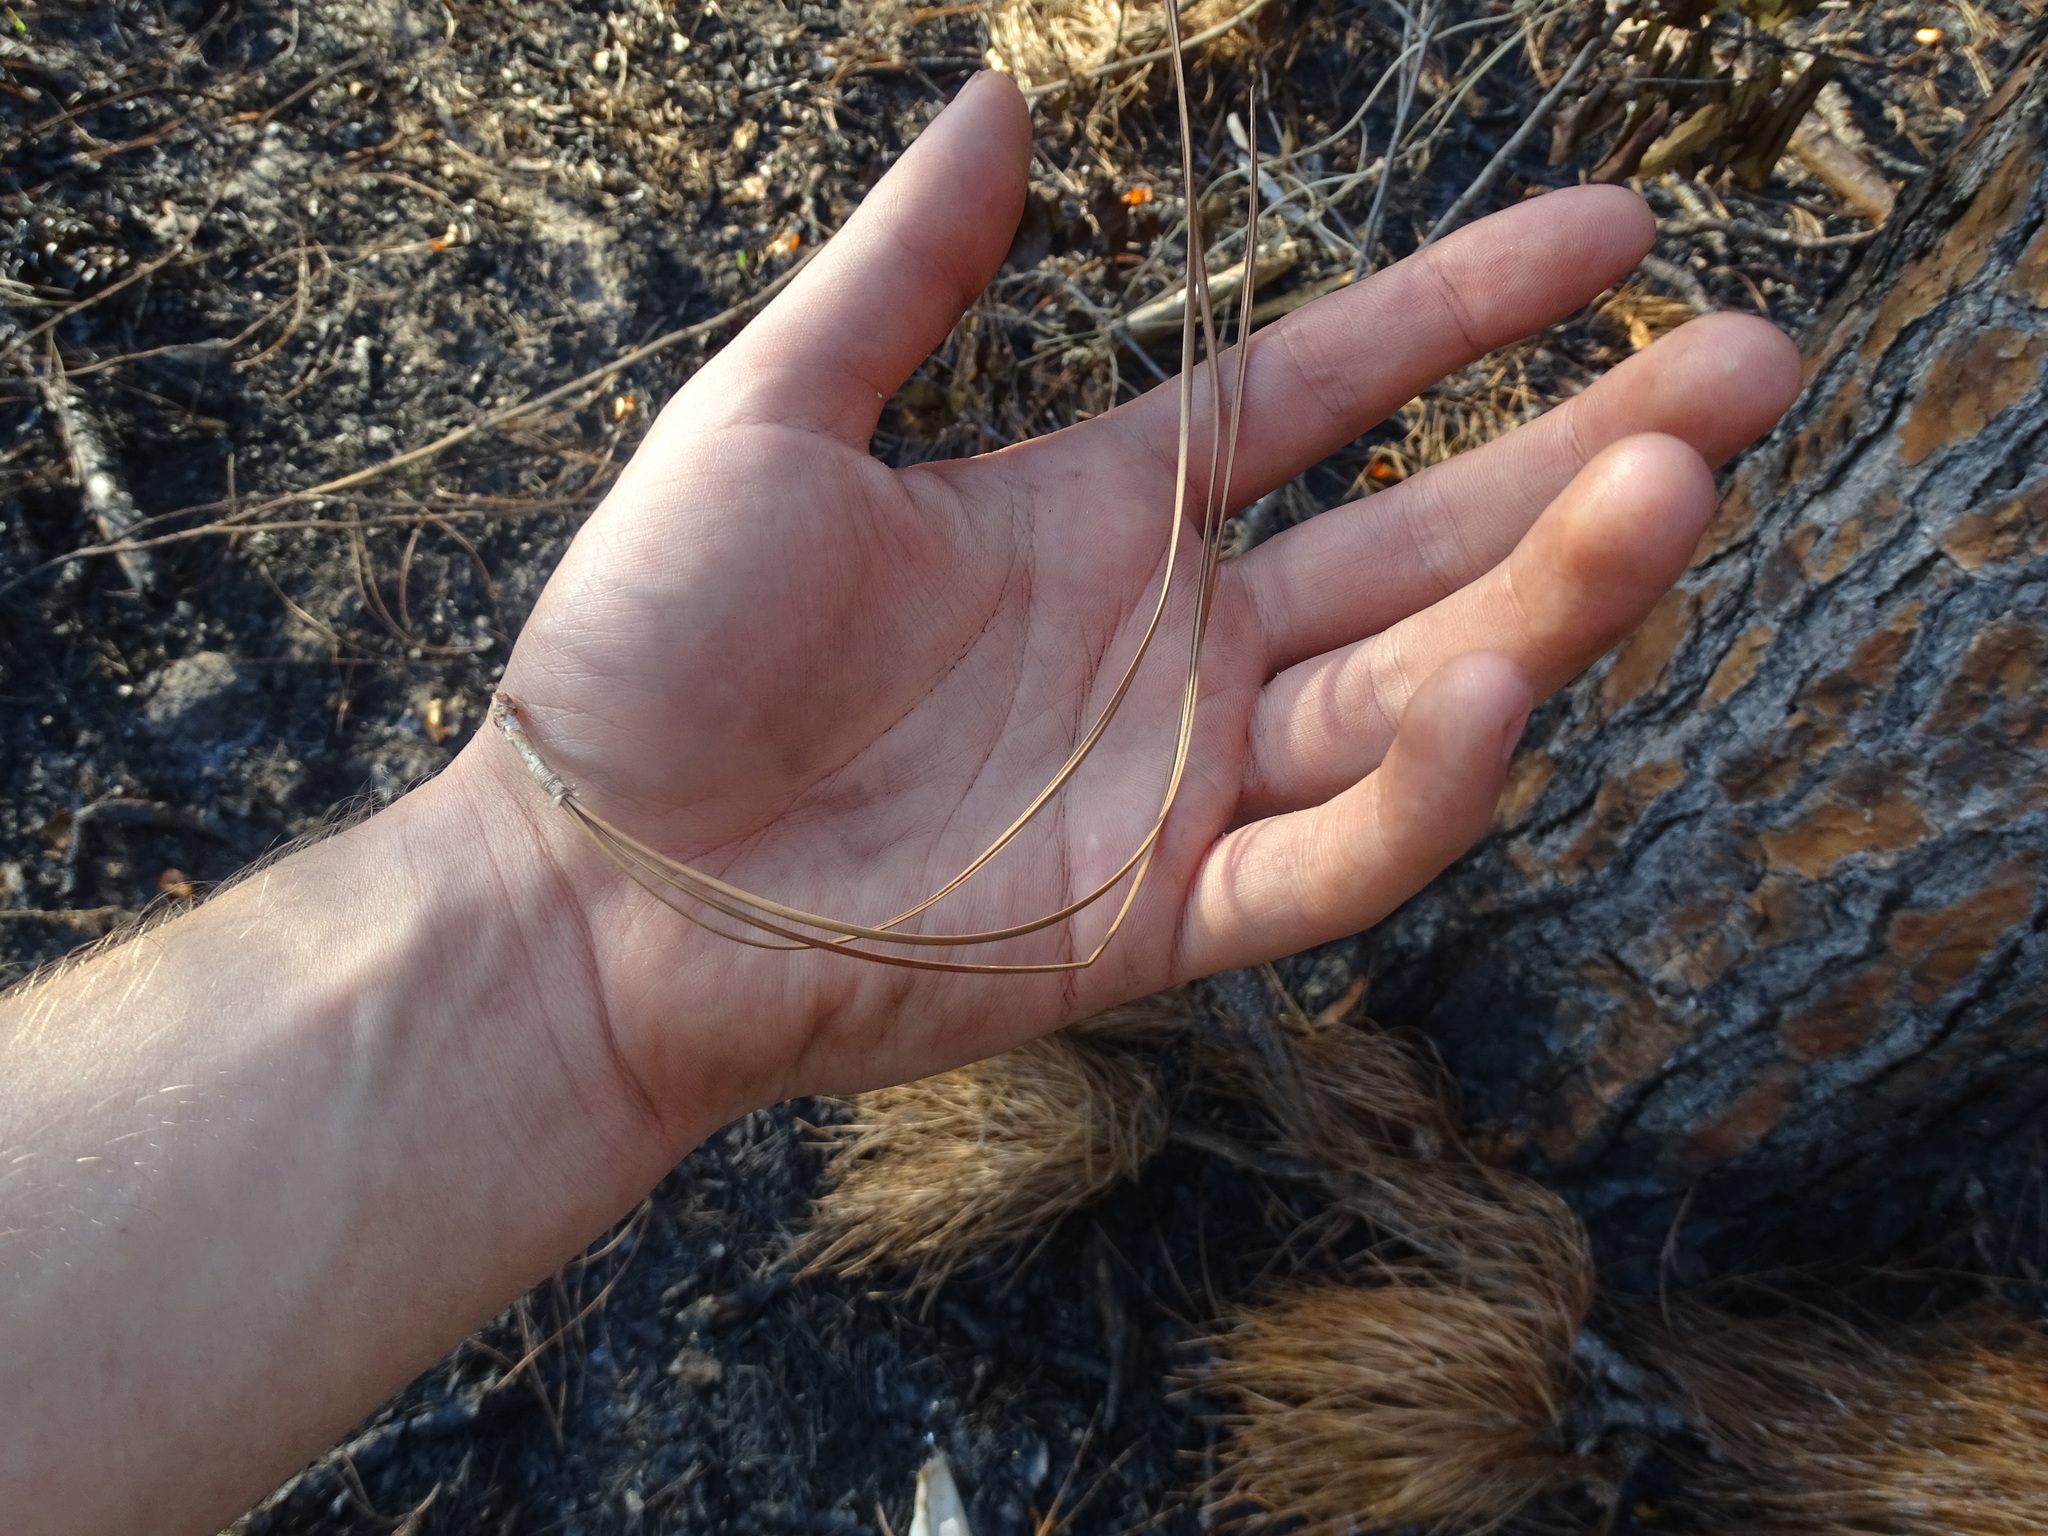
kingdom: Plantae
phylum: Tracheophyta
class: Pinopsida
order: Pinales
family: Pinaceae
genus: Pinus
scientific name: Pinus palustris
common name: Longleaf pine
